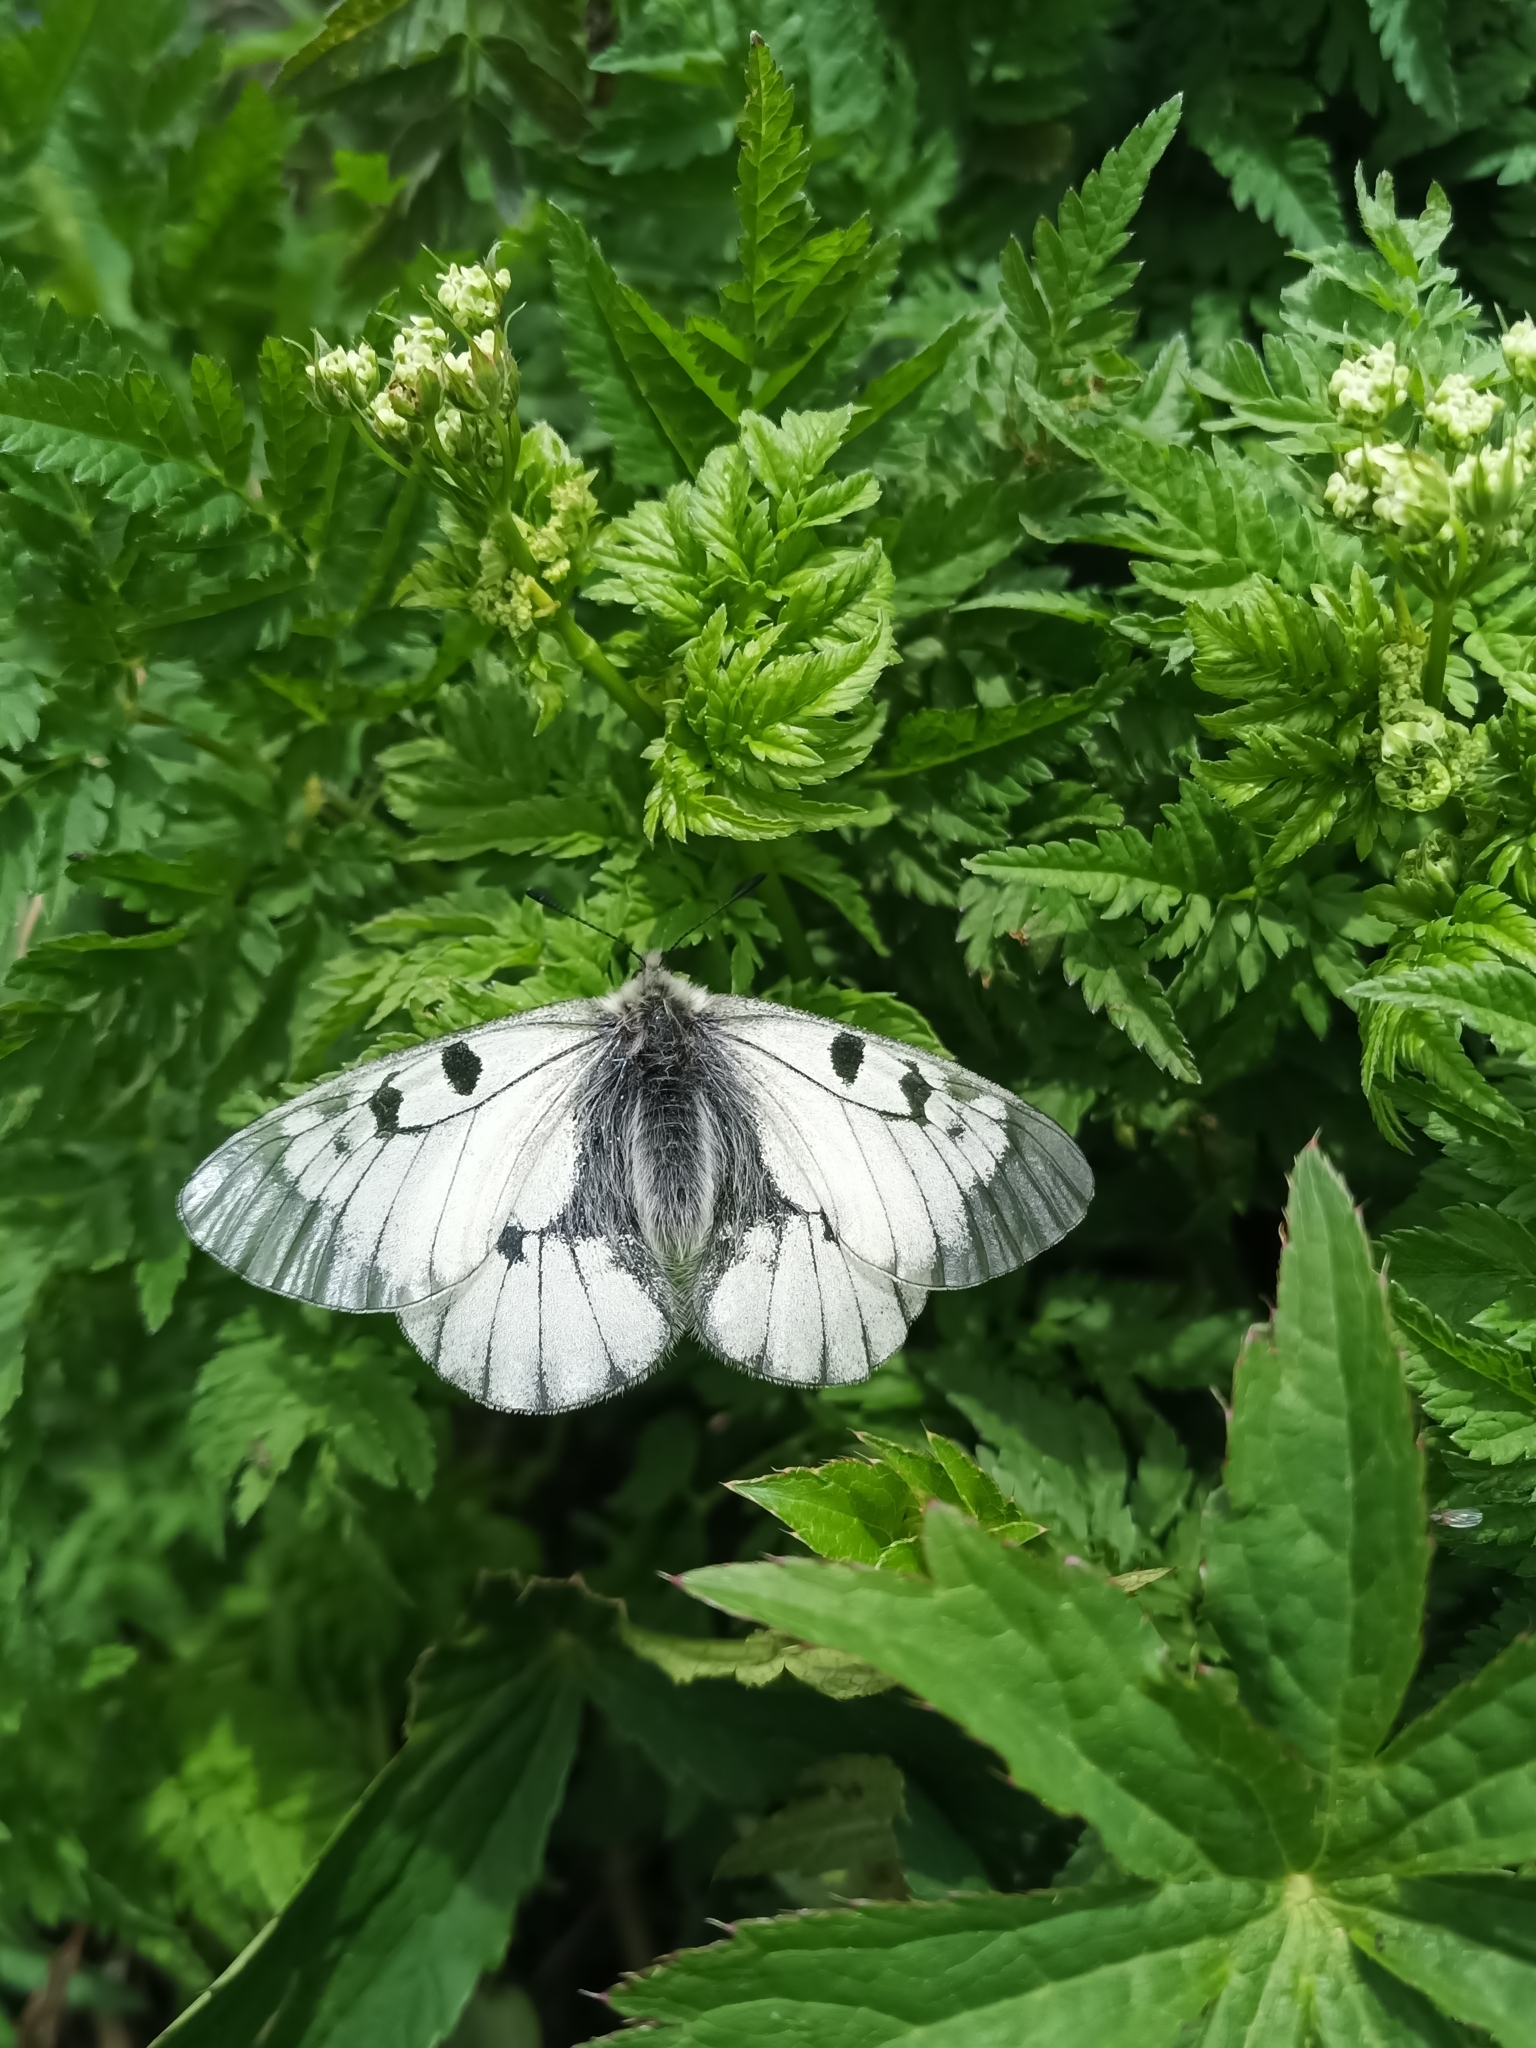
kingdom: Animalia
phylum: Arthropoda
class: Insecta
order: Lepidoptera
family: Papilionidae
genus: Parnassius
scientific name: Parnassius mnemosyne
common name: Clouded apollo
